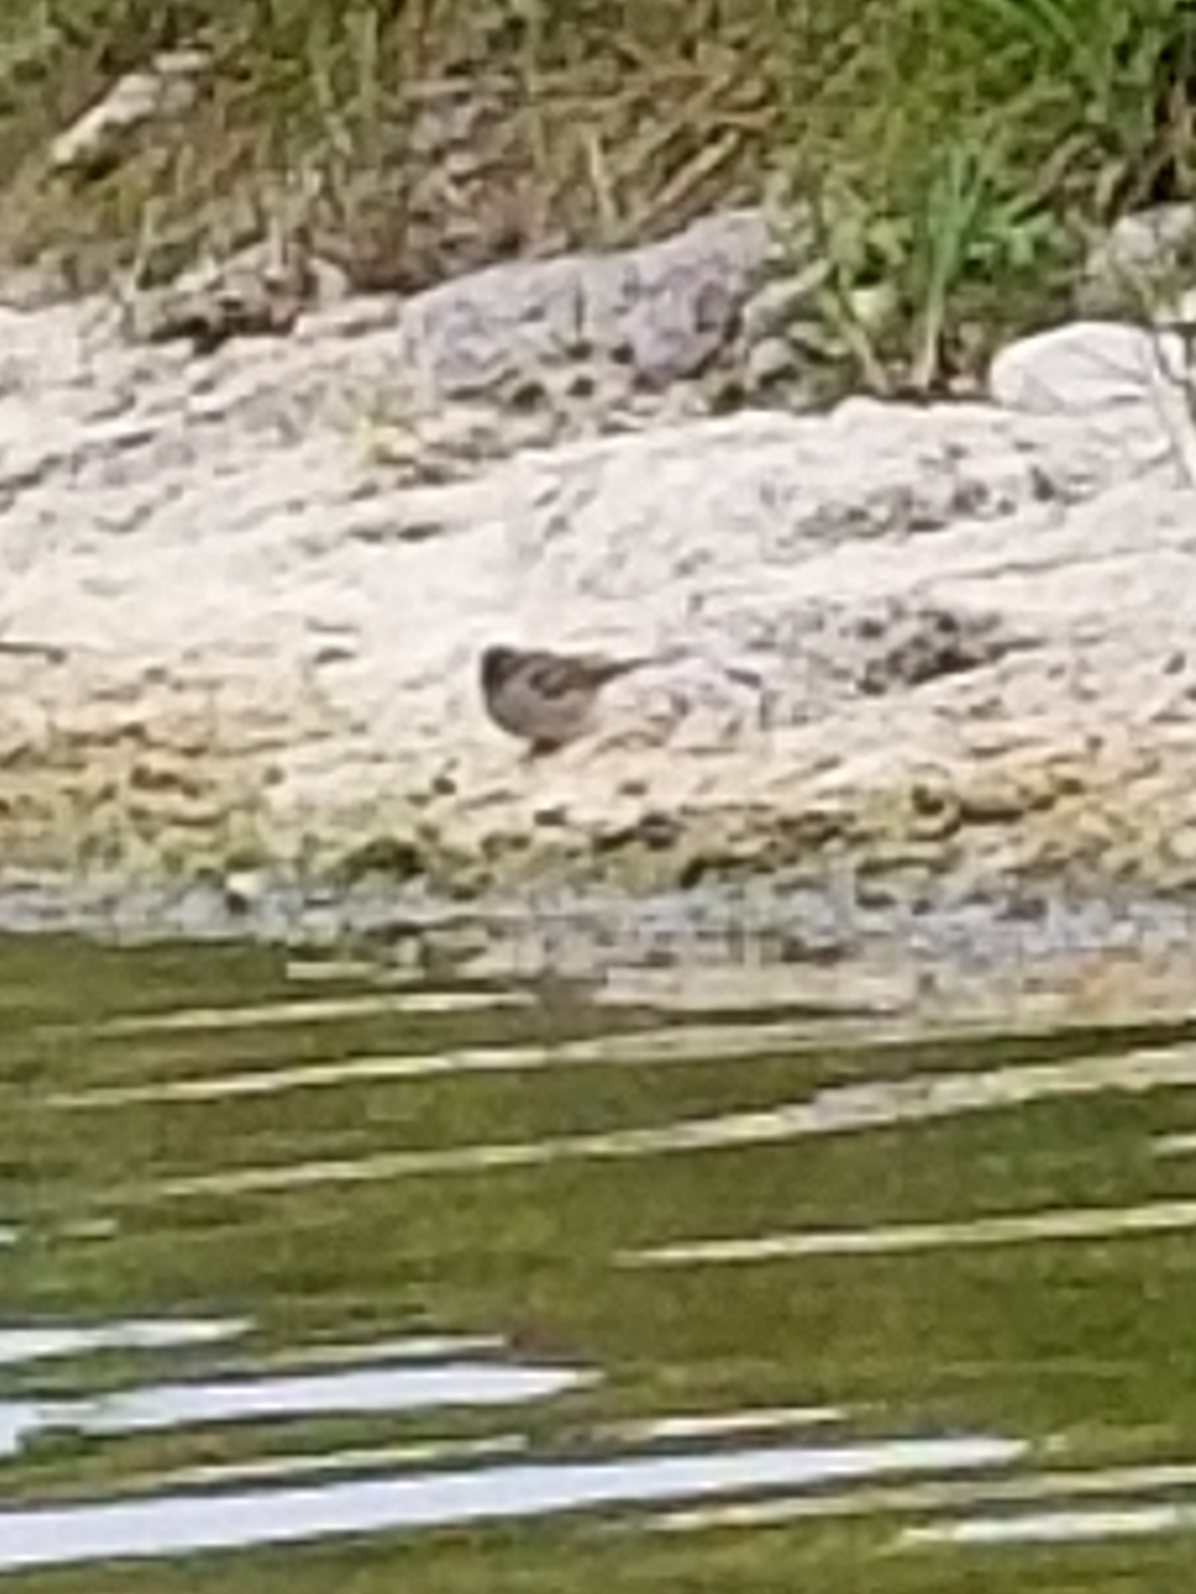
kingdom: Animalia
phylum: Chordata
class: Aves
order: Passeriformes
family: Passeridae
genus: Passer
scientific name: Passer domesticus
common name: House sparrow
